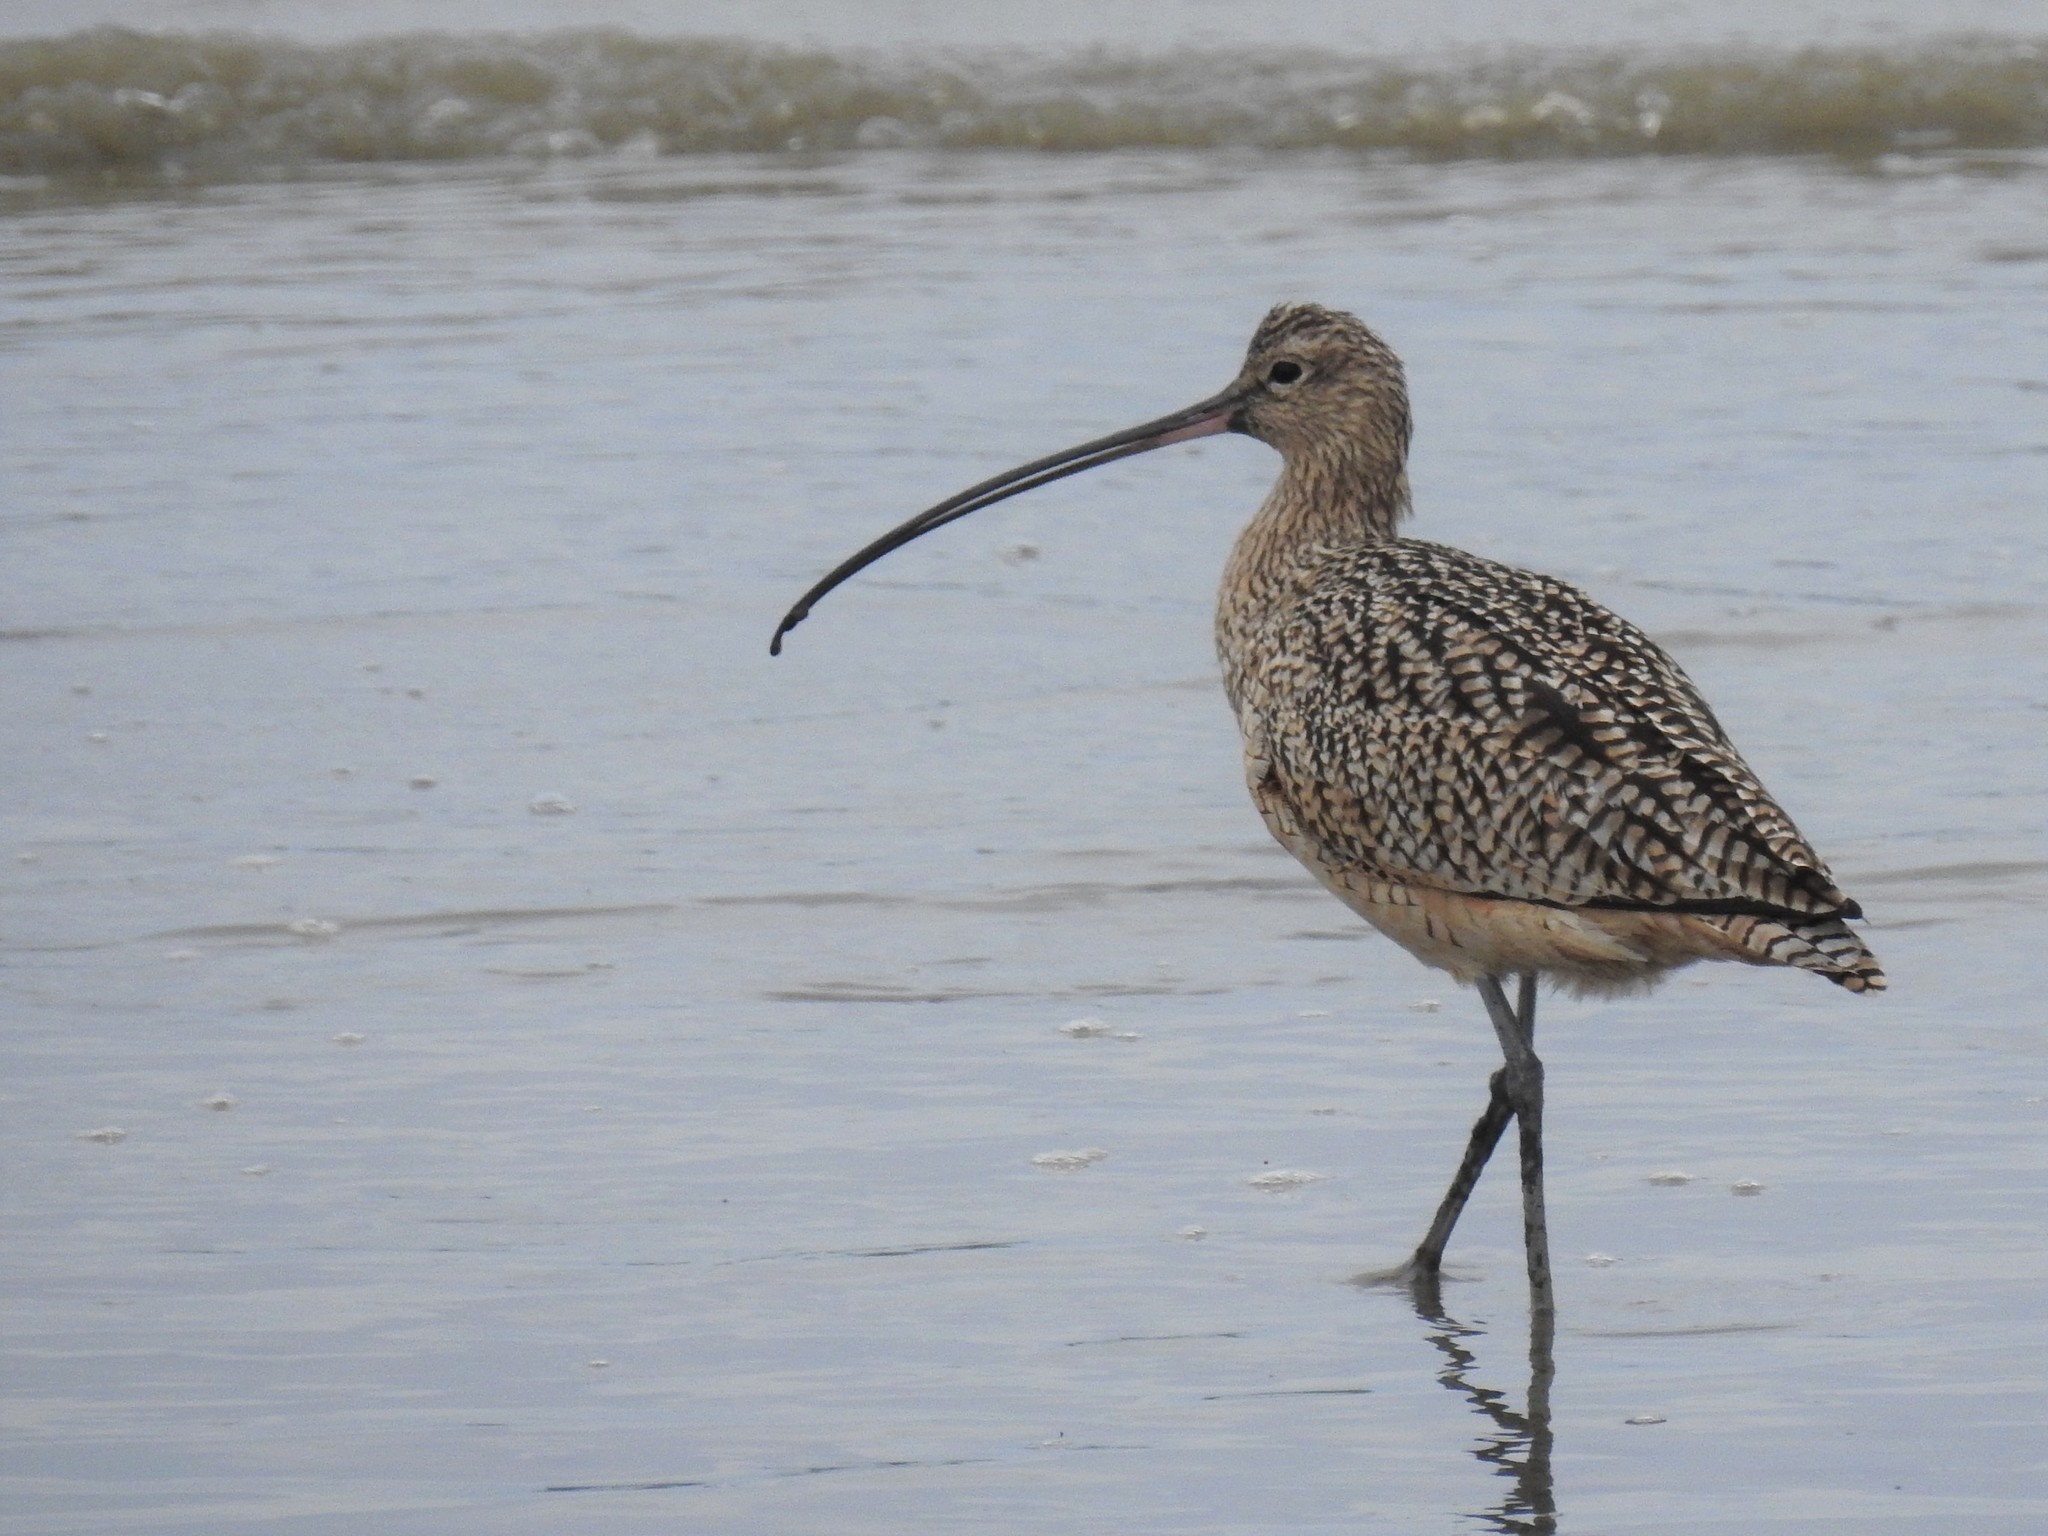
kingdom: Animalia
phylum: Chordata
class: Aves
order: Charadriiformes
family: Scolopacidae
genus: Numenius
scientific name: Numenius americanus
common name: Long-billed curlew
